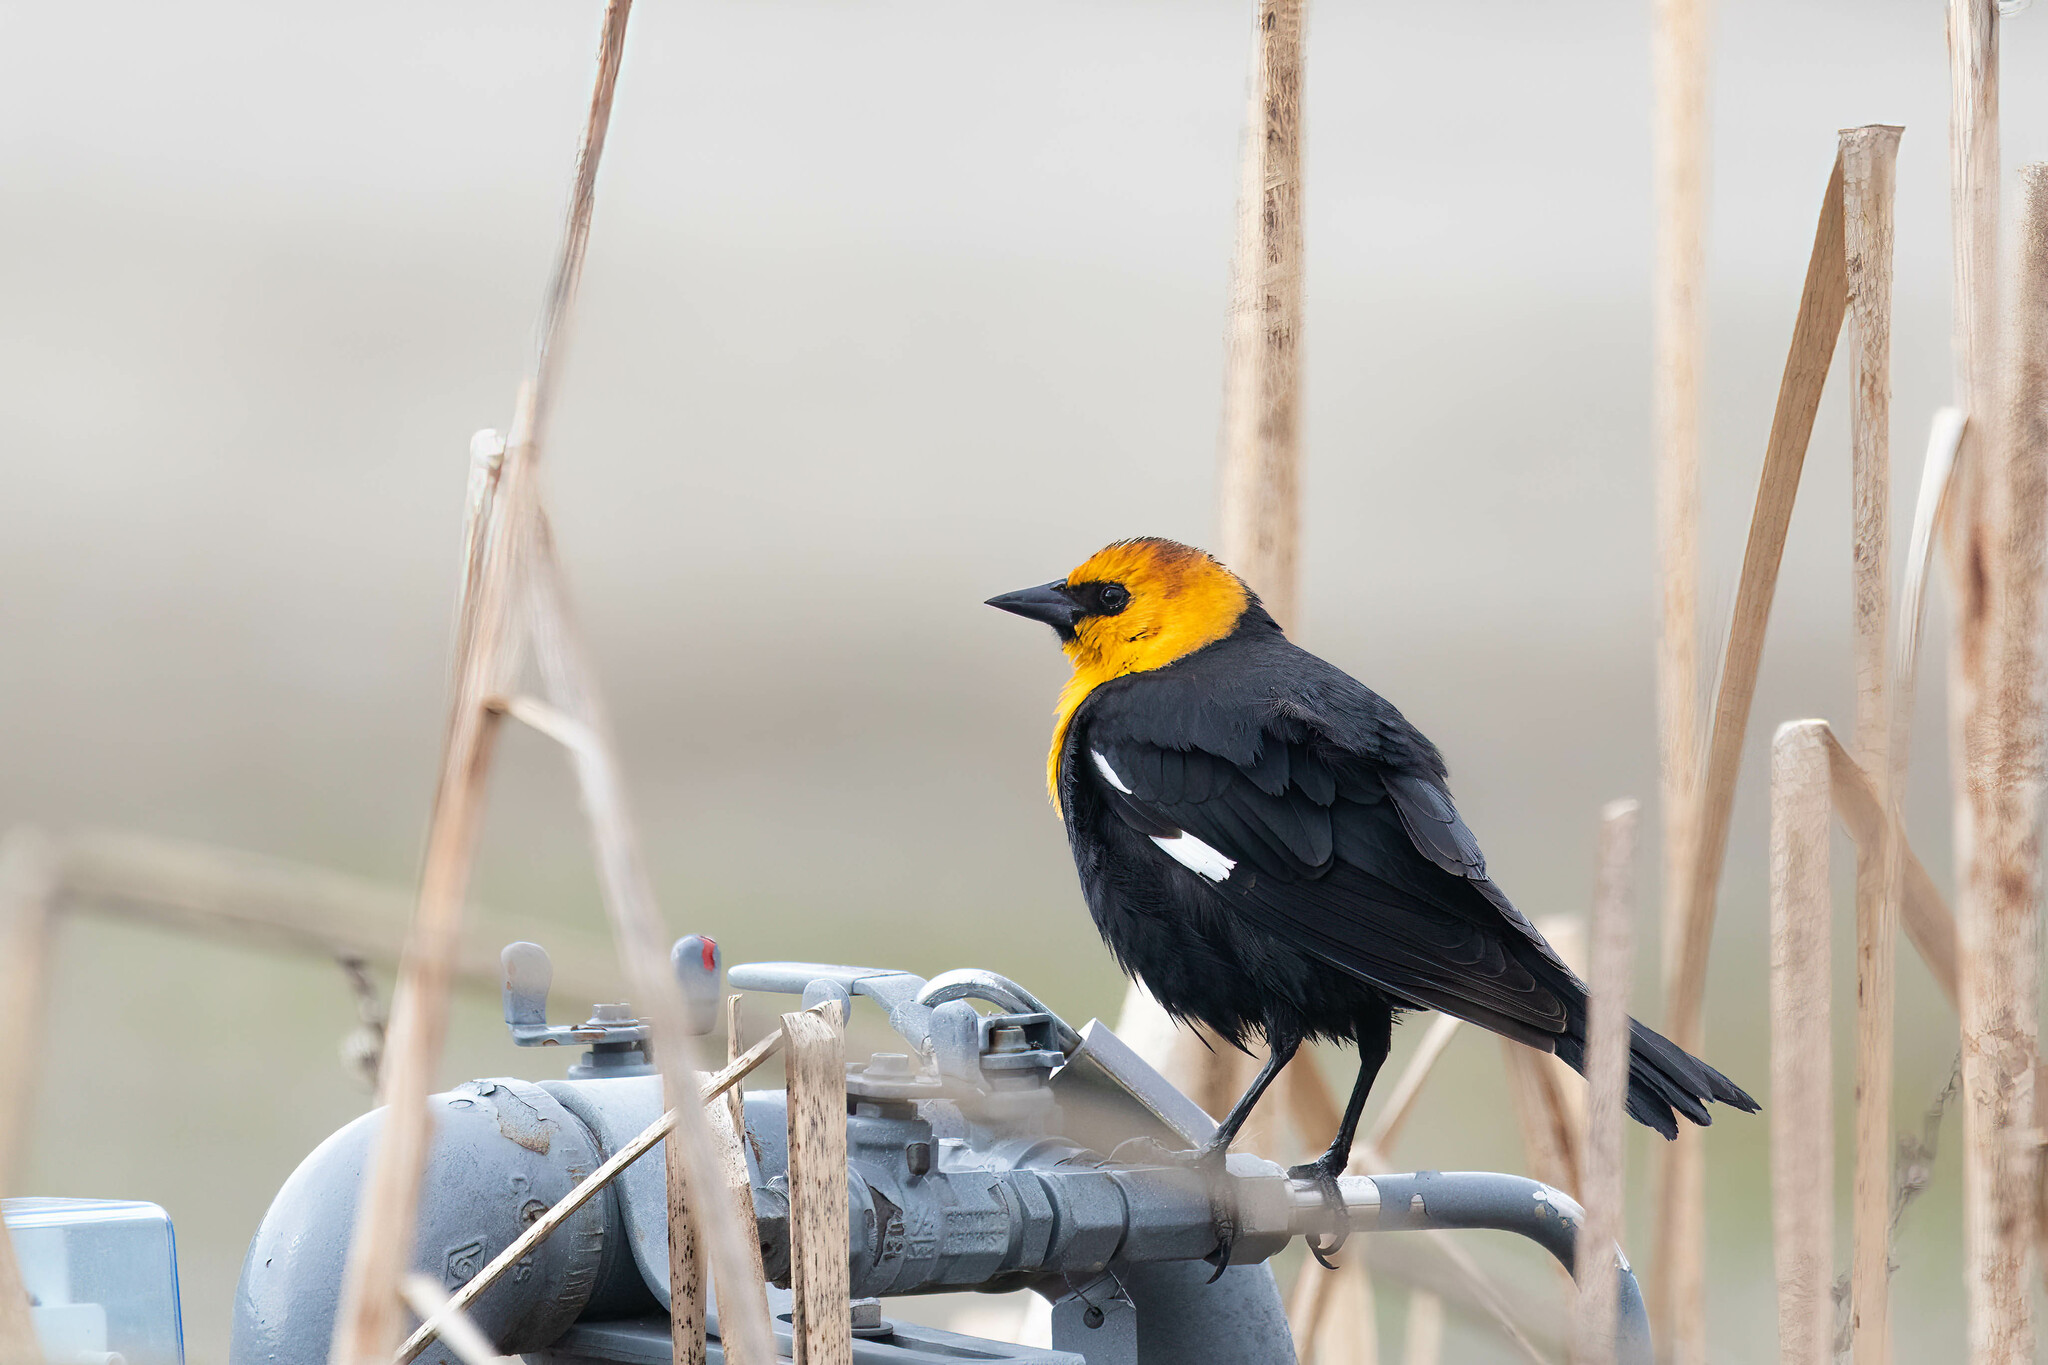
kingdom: Animalia
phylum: Chordata
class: Aves
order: Passeriformes
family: Icteridae
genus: Xanthocephalus
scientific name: Xanthocephalus xanthocephalus
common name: Yellow-headed blackbird
